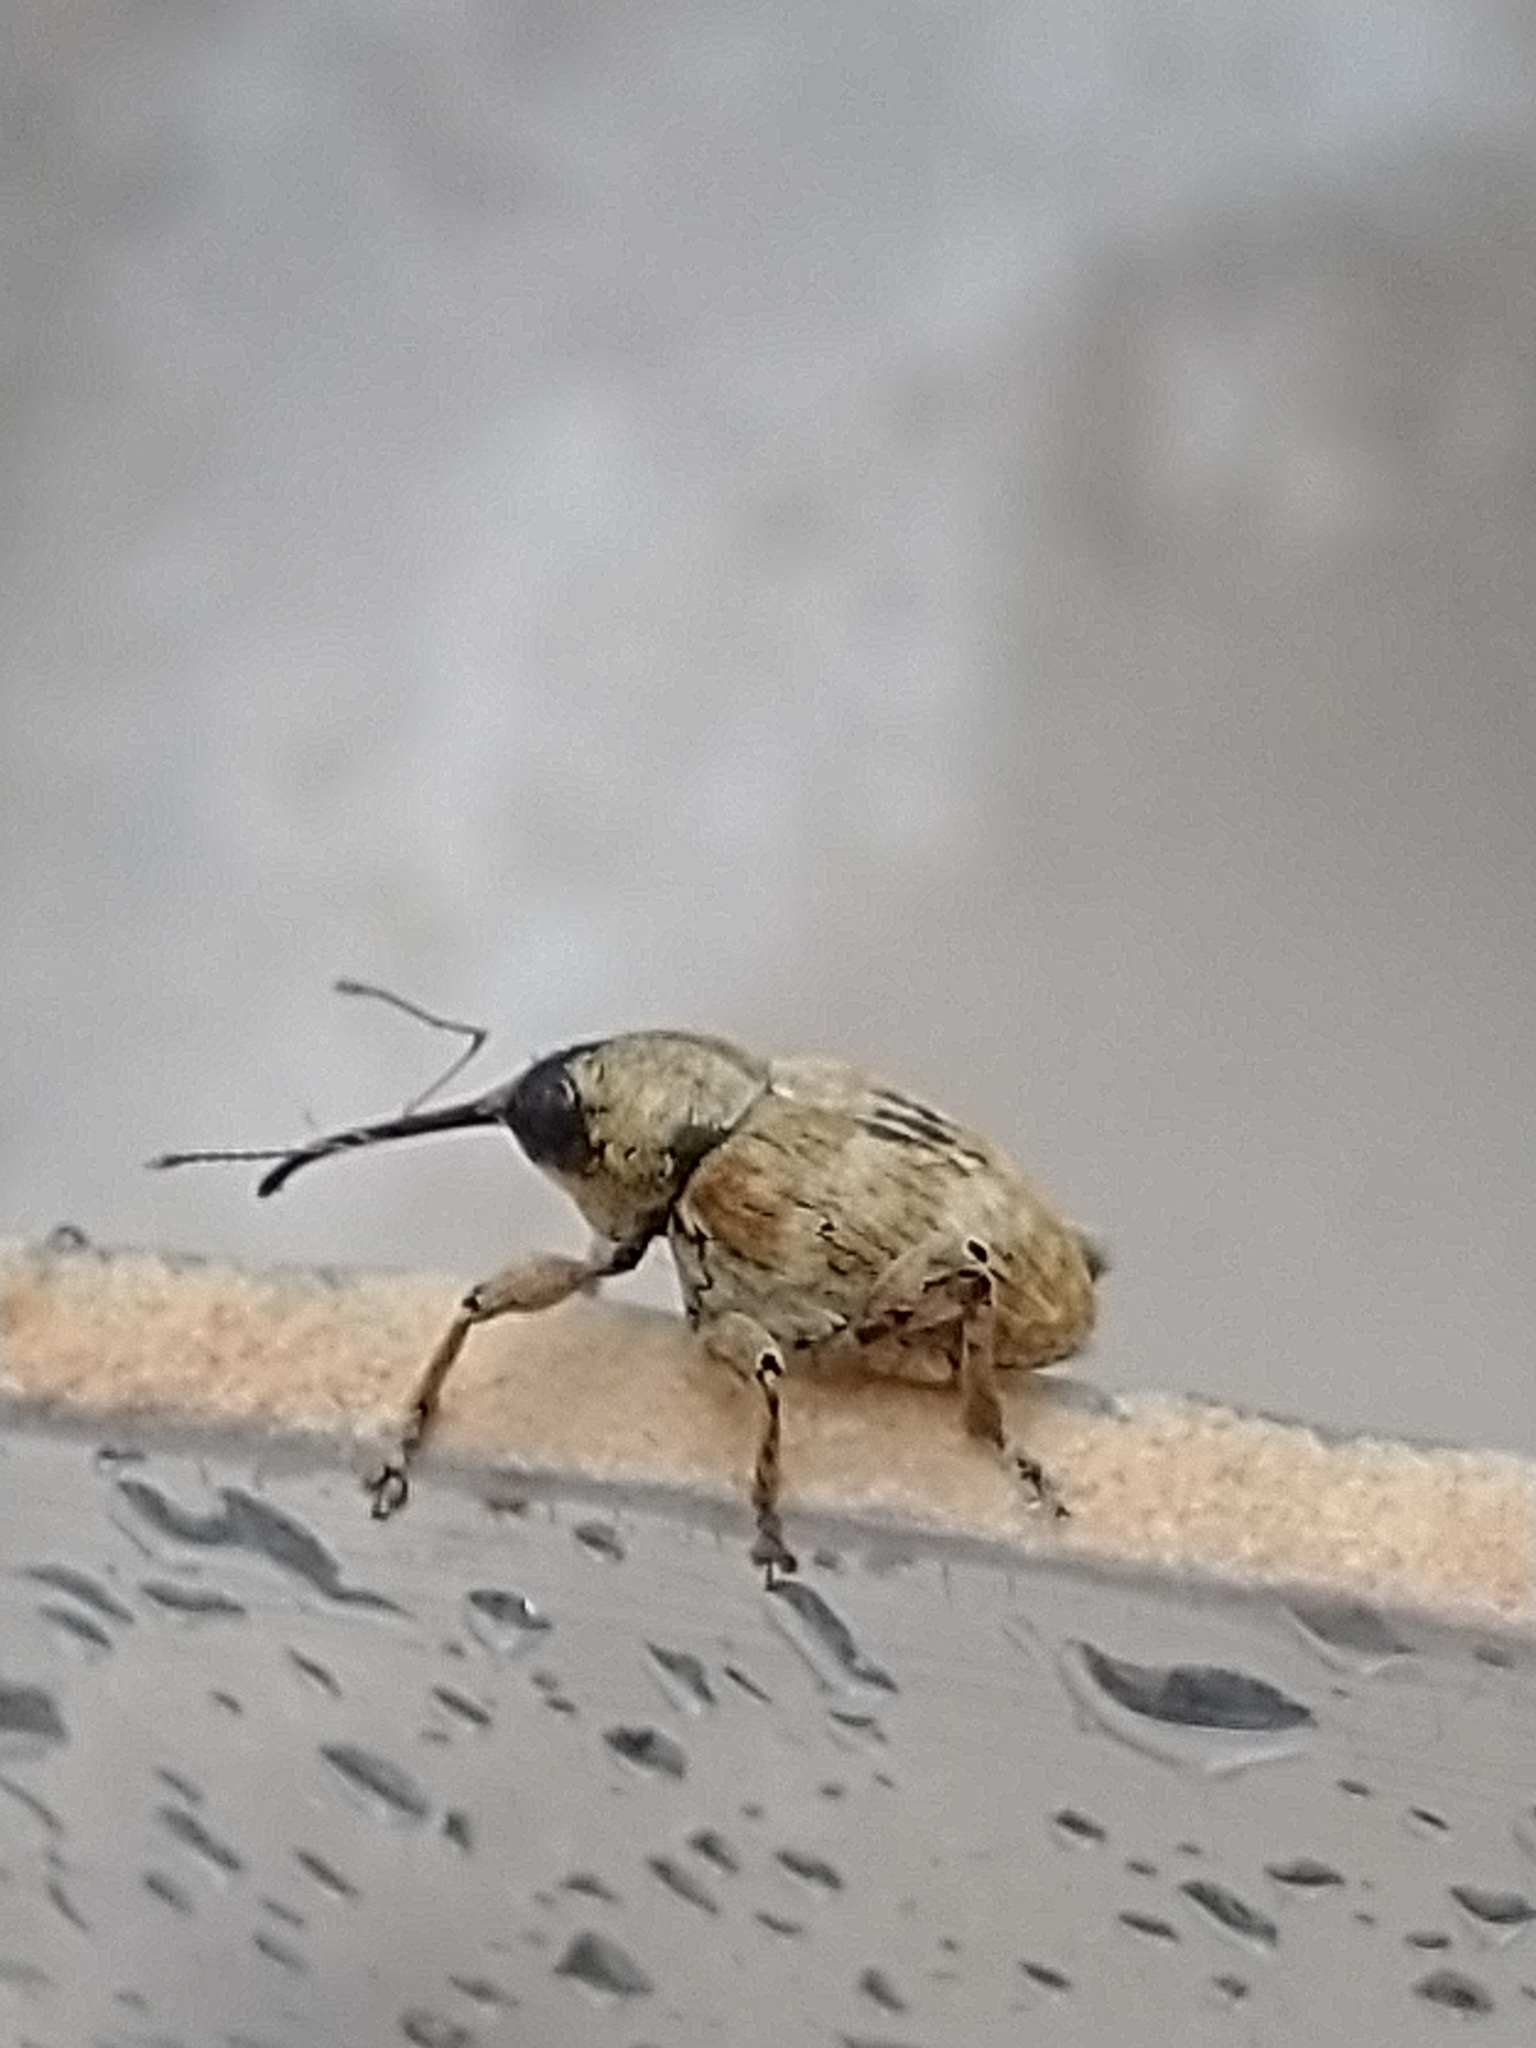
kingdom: Animalia
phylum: Arthropoda
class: Insecta
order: Coleoptera
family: Curculionidae
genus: Curculio
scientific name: Curculio venosus
